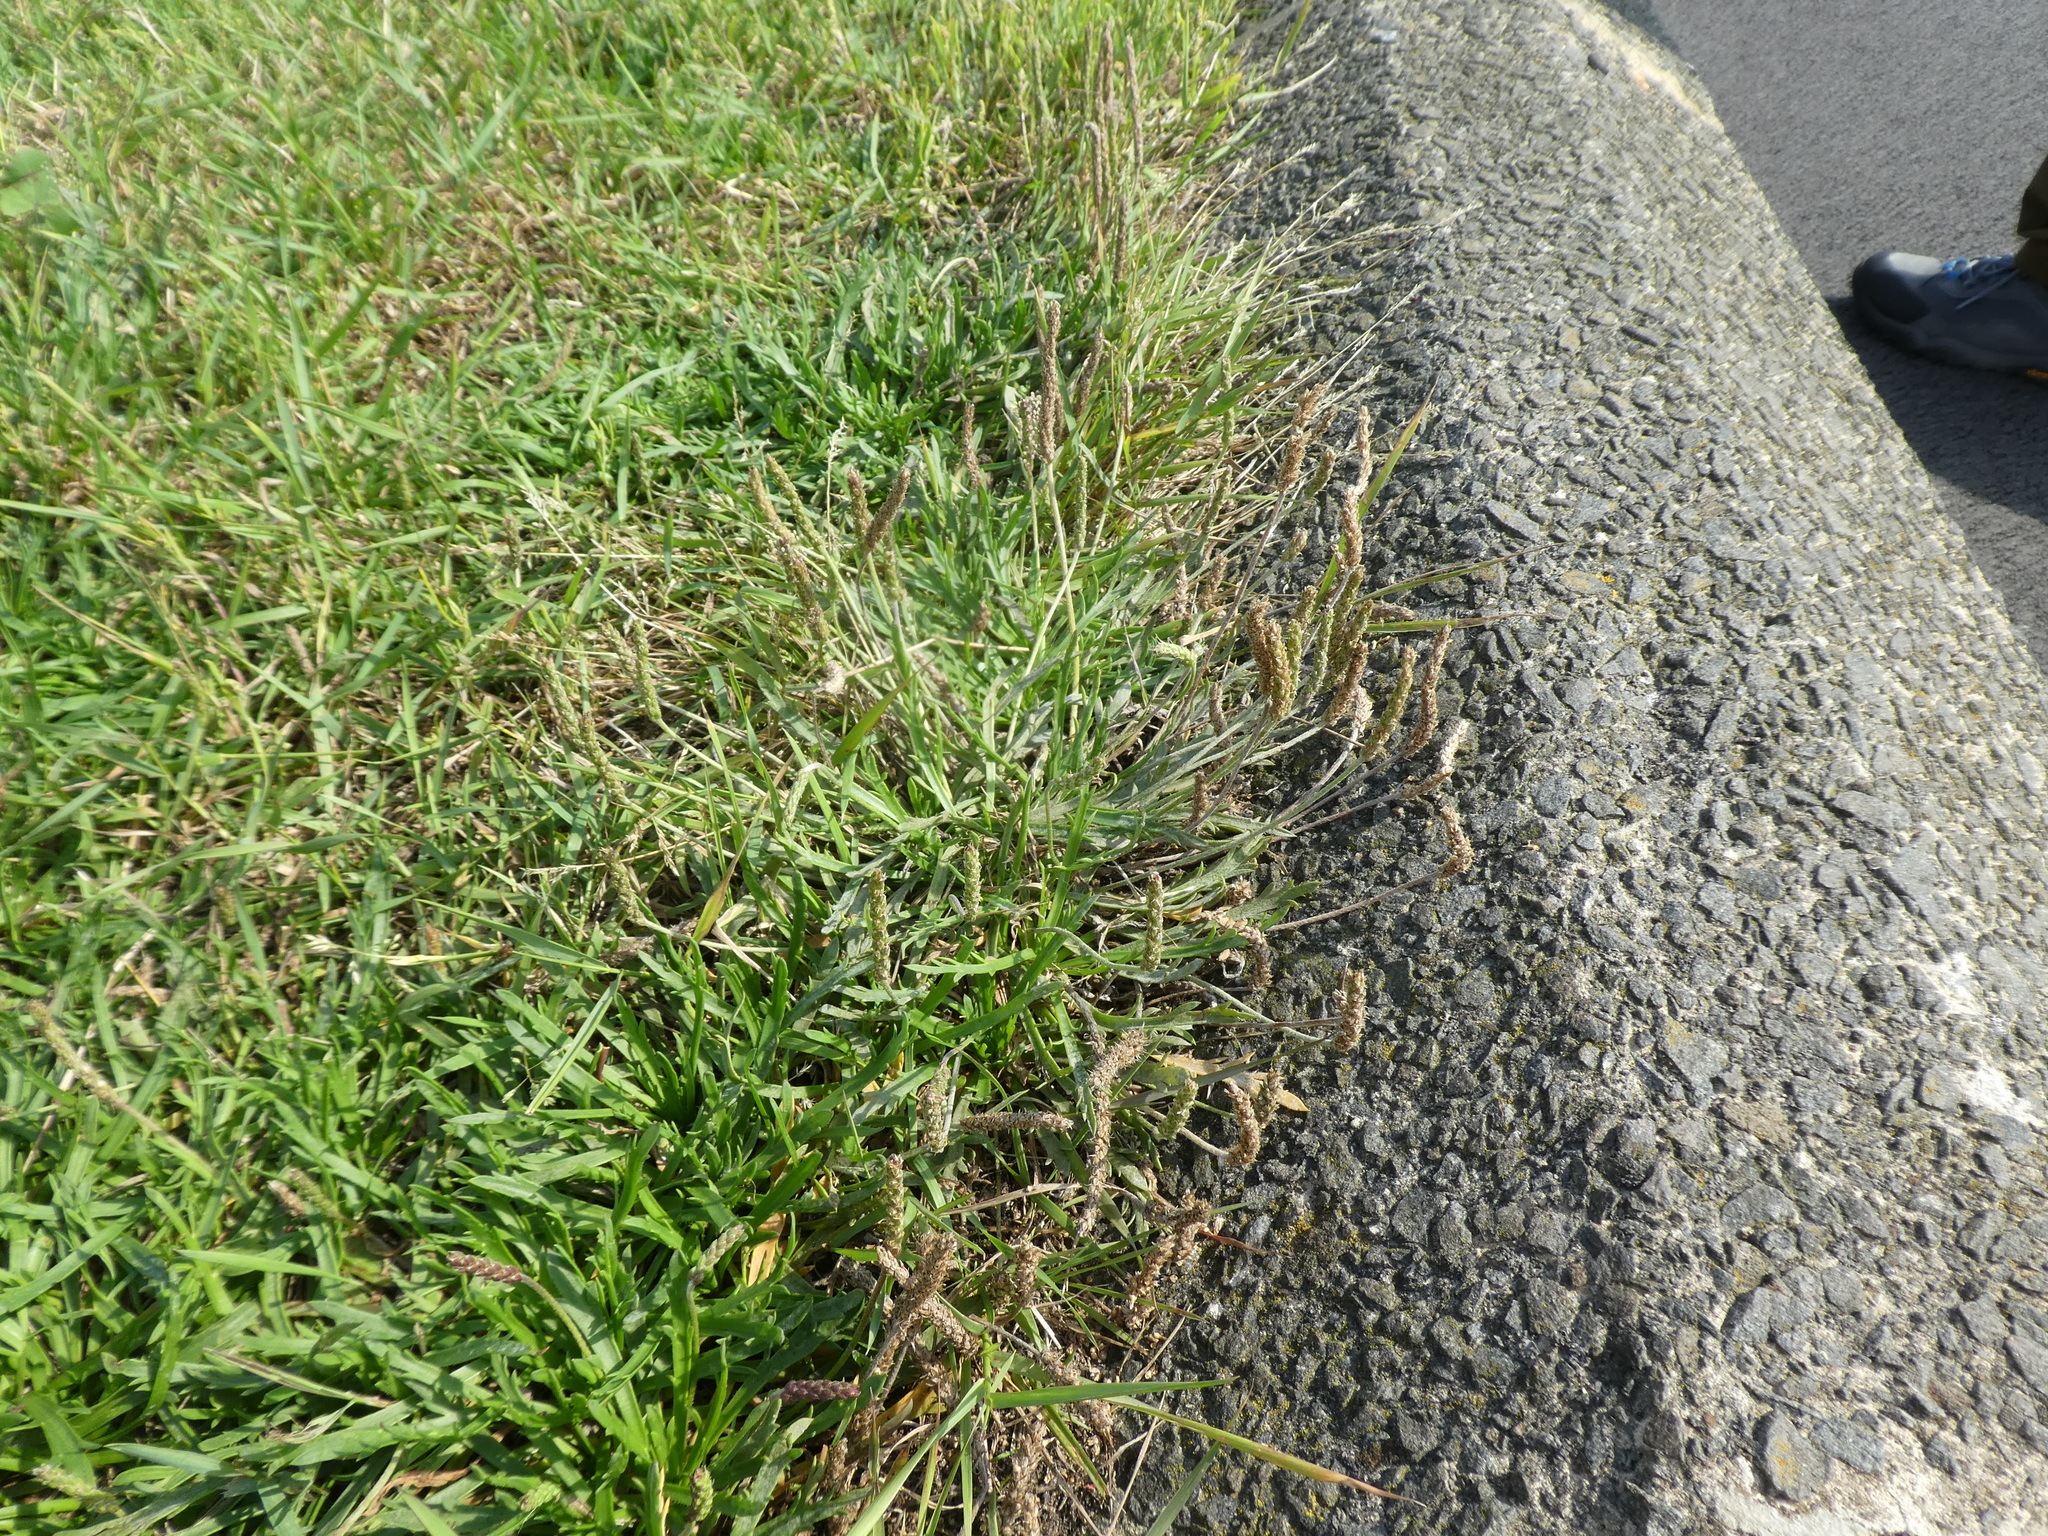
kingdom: Plantae
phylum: Tracheophyta
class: Magnoliopsida
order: Lamiales
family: Plantaginaceae
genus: Plantago
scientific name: Plantago coronopus
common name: Buck's-horn plantain
